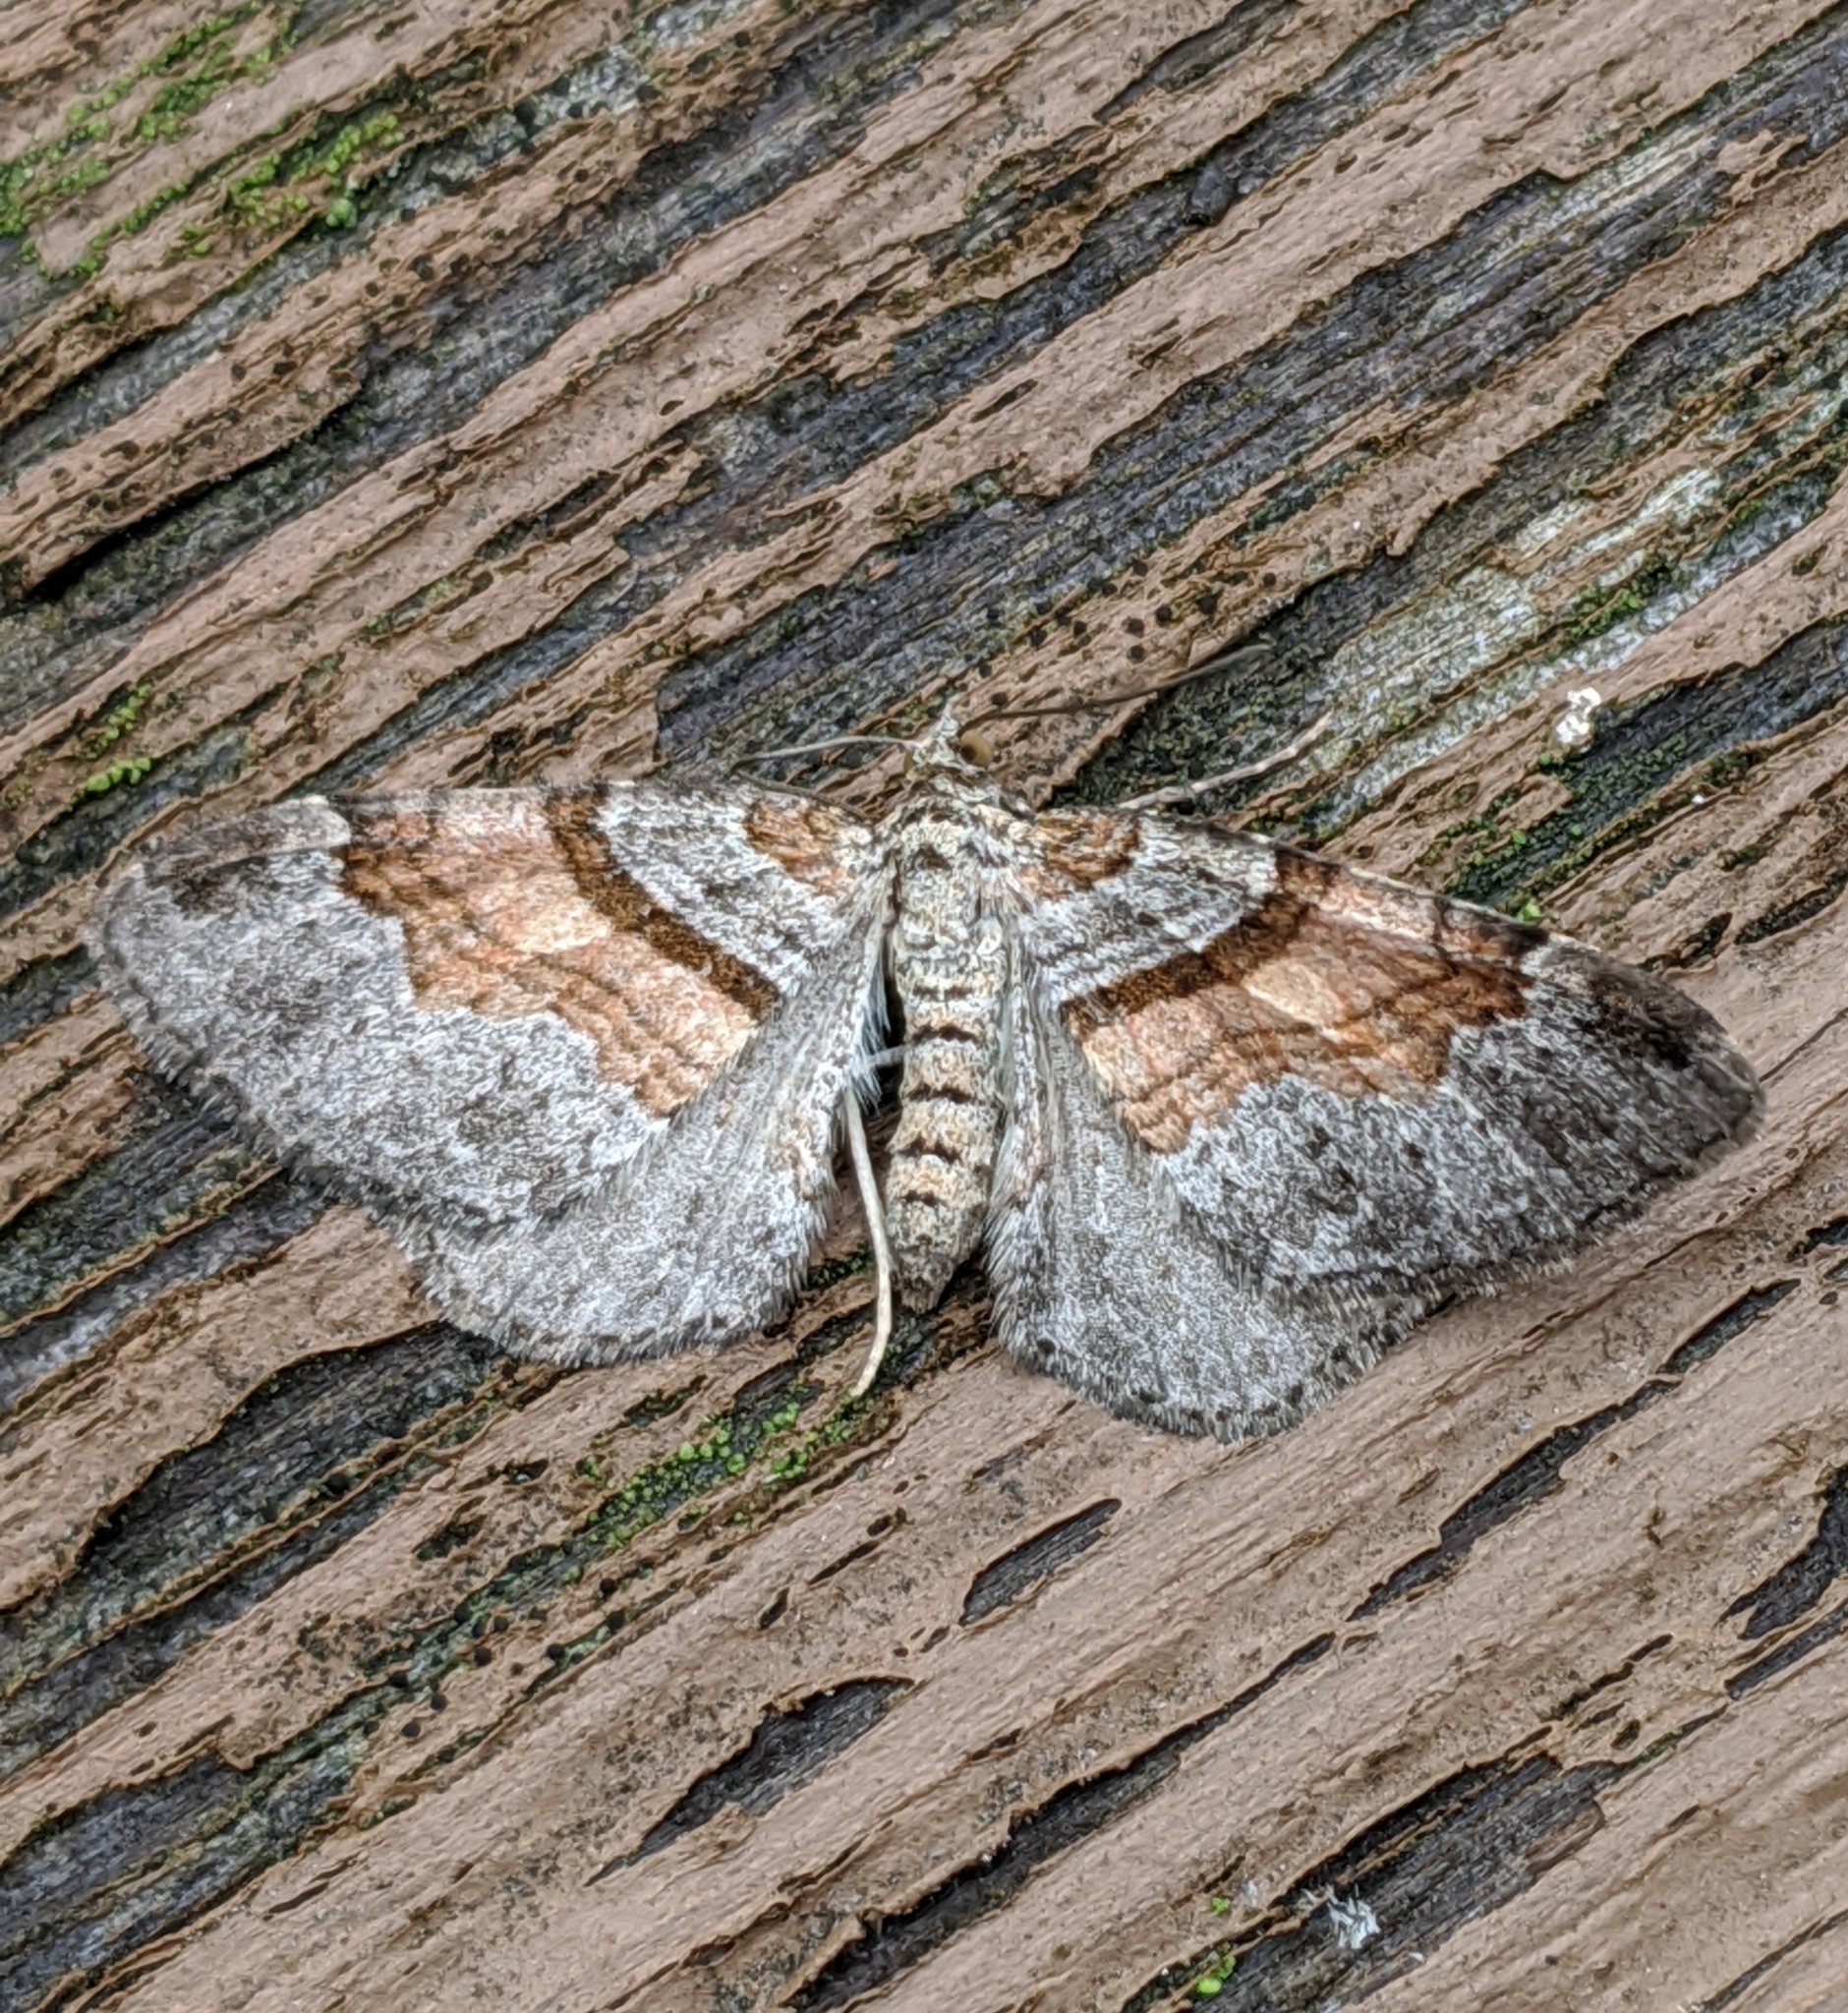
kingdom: Animalia
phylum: Arthropoda
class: Insecta
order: Lepidoptera
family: Geometridae
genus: Xanthorhoe
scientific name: Xanthorhoe labradorensis
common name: Labrador carpet
